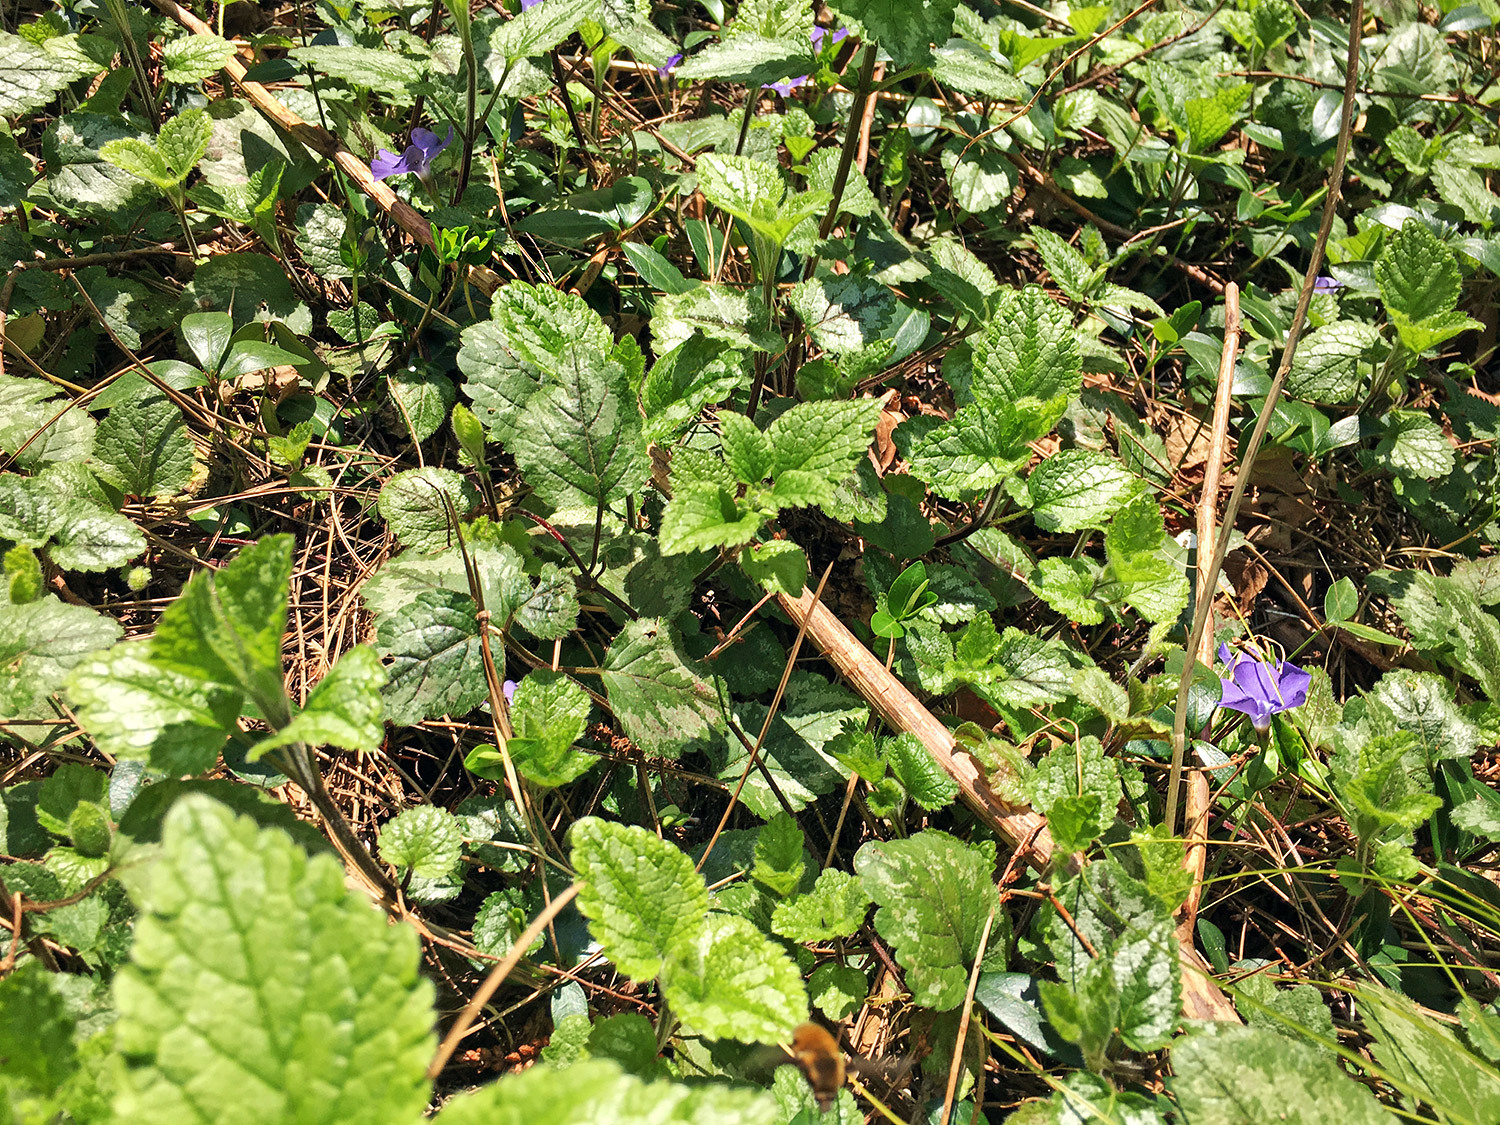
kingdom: Plantae
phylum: Tracheophyta
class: Magnoliopsida
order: Gentianales
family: Apocynaceae
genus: Vinca
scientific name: Vinca minor
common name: Lesser periwinkle
